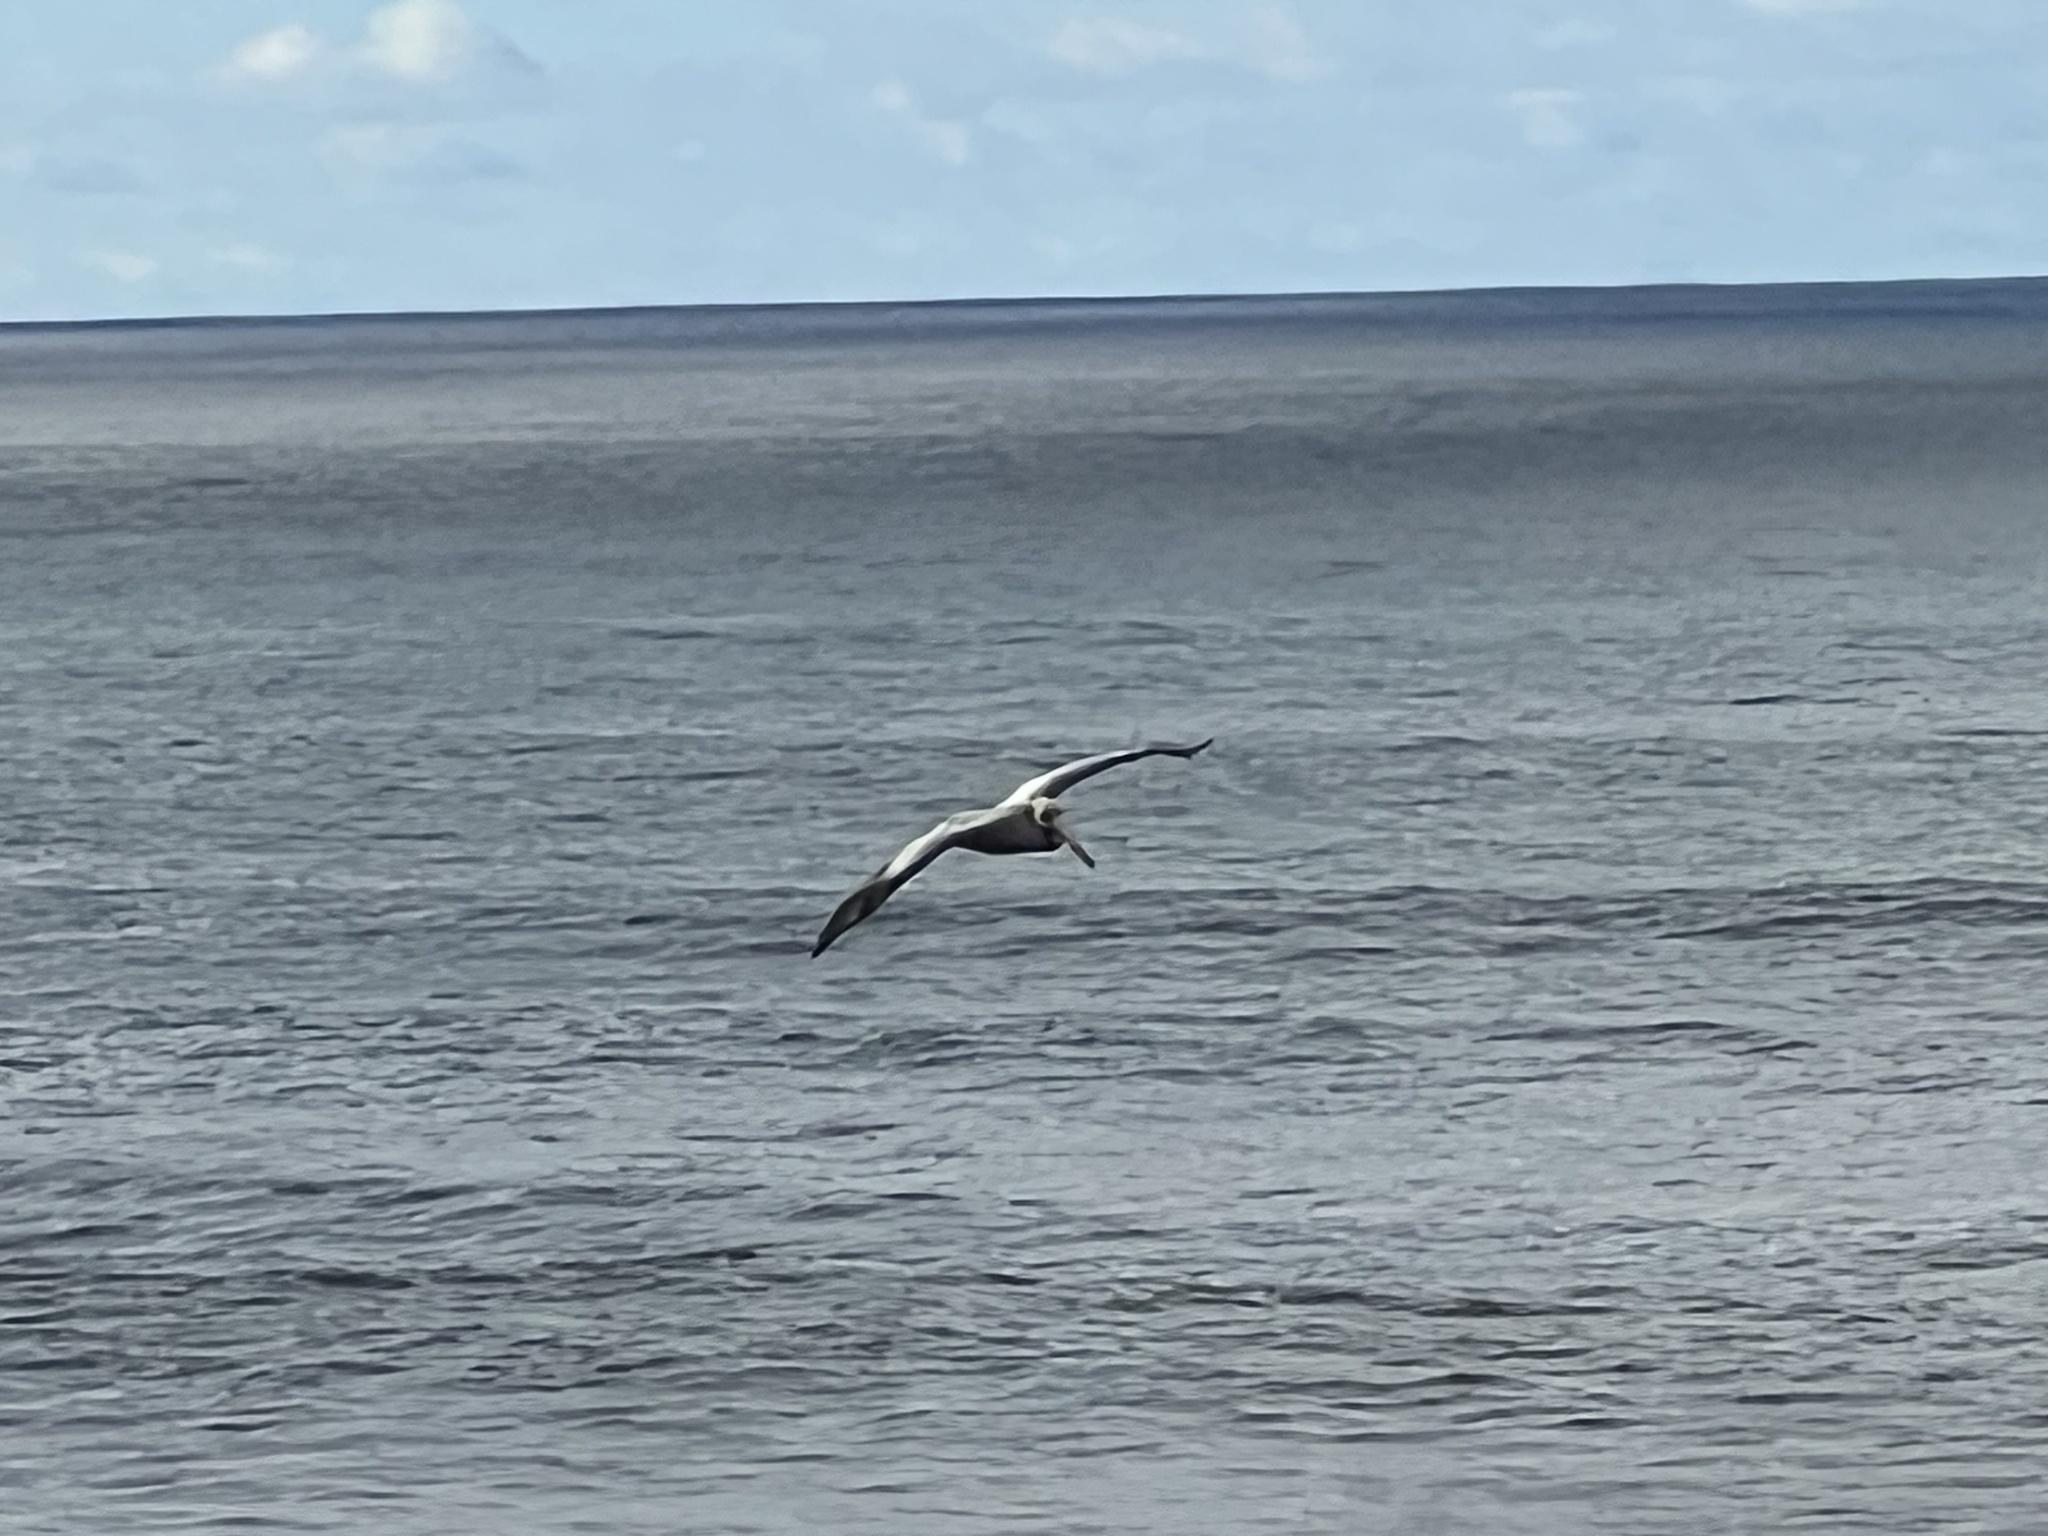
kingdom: Animalia
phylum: Chordata
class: Aves
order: Pelecaniformes
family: Pelecanidae
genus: Pelecanus
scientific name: Pelecanus occidentalis
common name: Brown pelican
